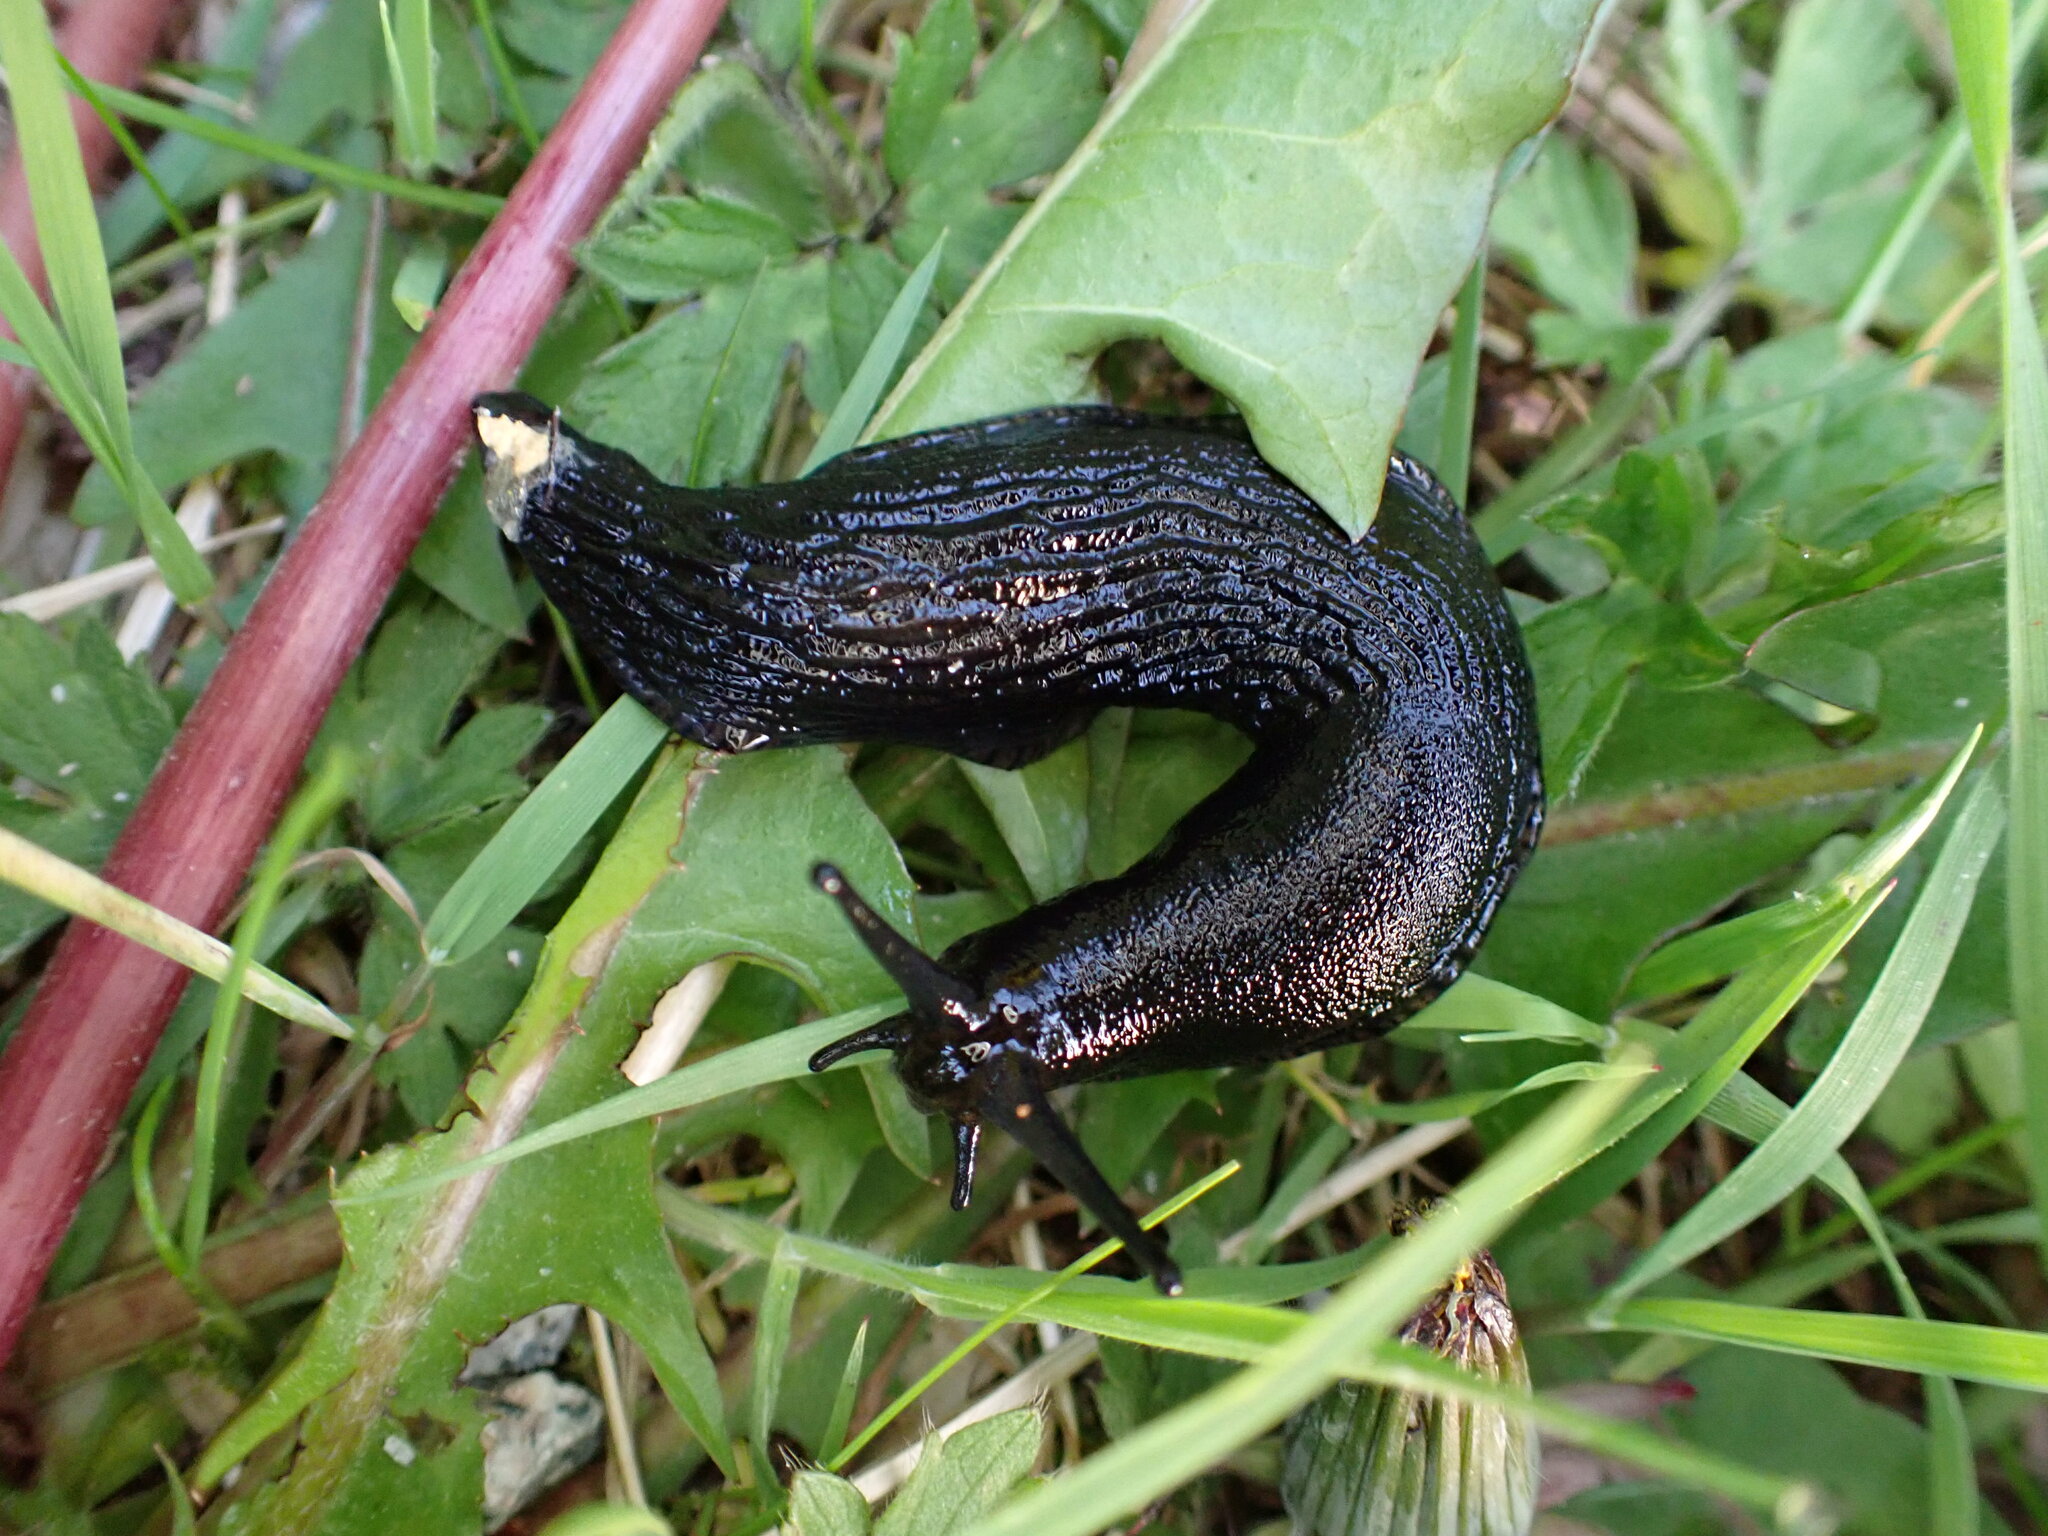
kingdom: Animalia
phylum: Mollusca
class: Gastropoda
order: Stylommatophora
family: Arionidae
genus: Arion
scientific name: Arion
